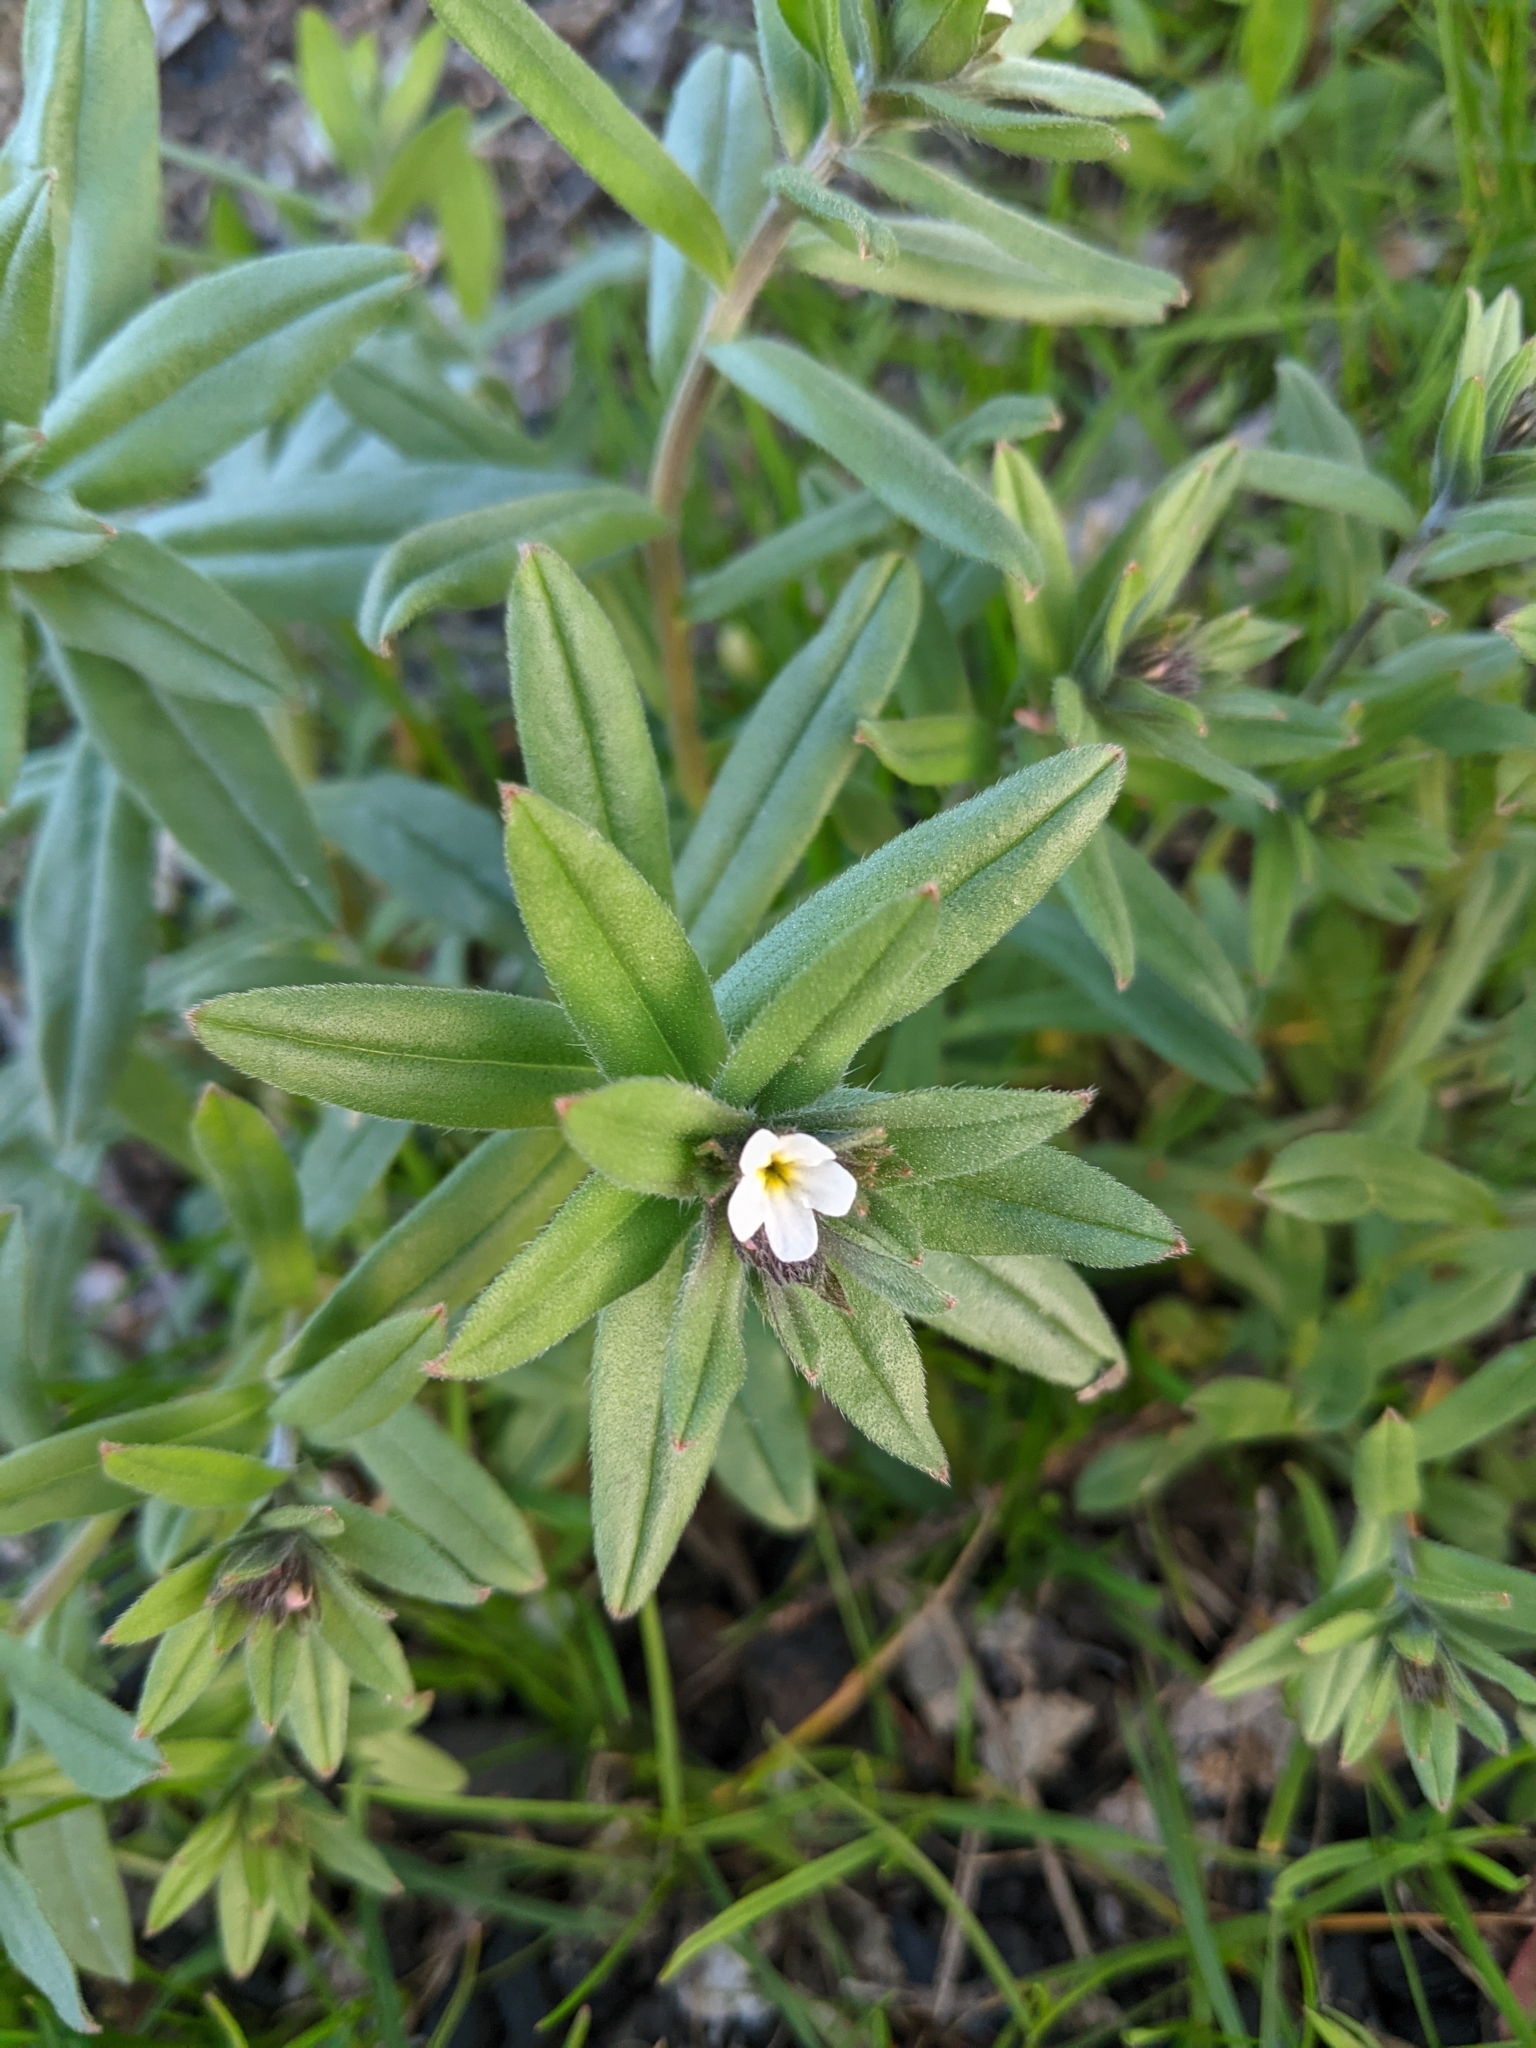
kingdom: Plantae
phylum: Tracheophyta
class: Magnoliopsida
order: Boraginales
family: Boraginaceae
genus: Buglossoides
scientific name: Buglossoides arvensis
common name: Corn gromwell
